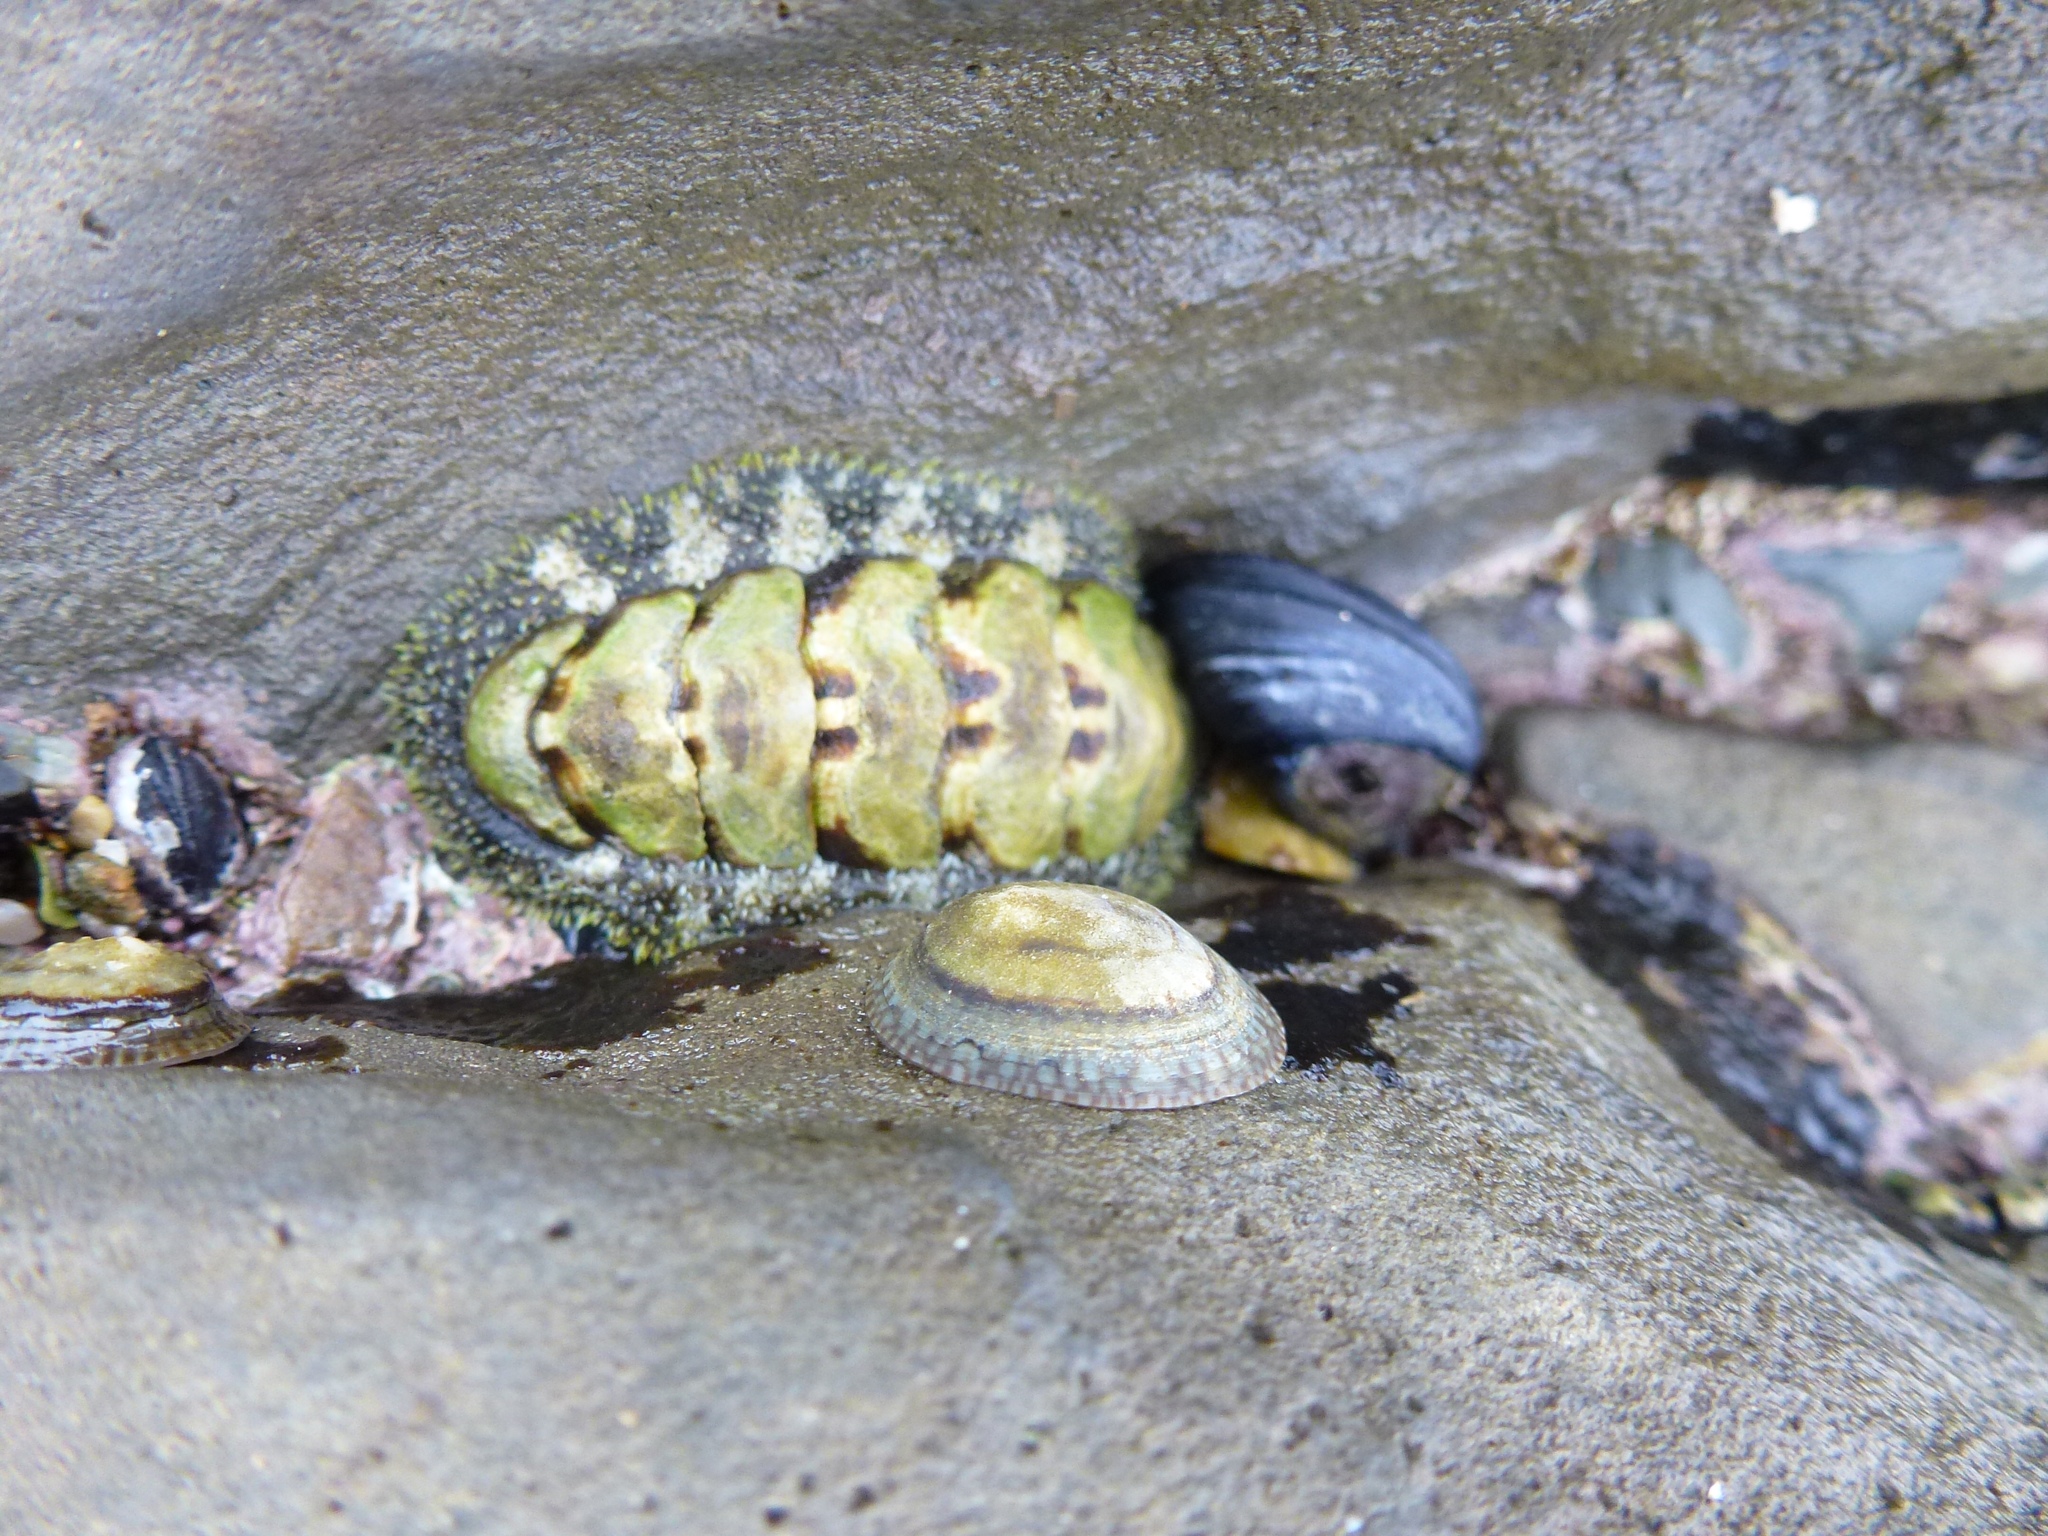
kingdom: Animalia
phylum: Mollusca
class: Polyplacophora
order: Chitonida
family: Tonicellidae
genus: Nuttallina
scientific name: Nuttallina californica
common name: California nuttall chiton
